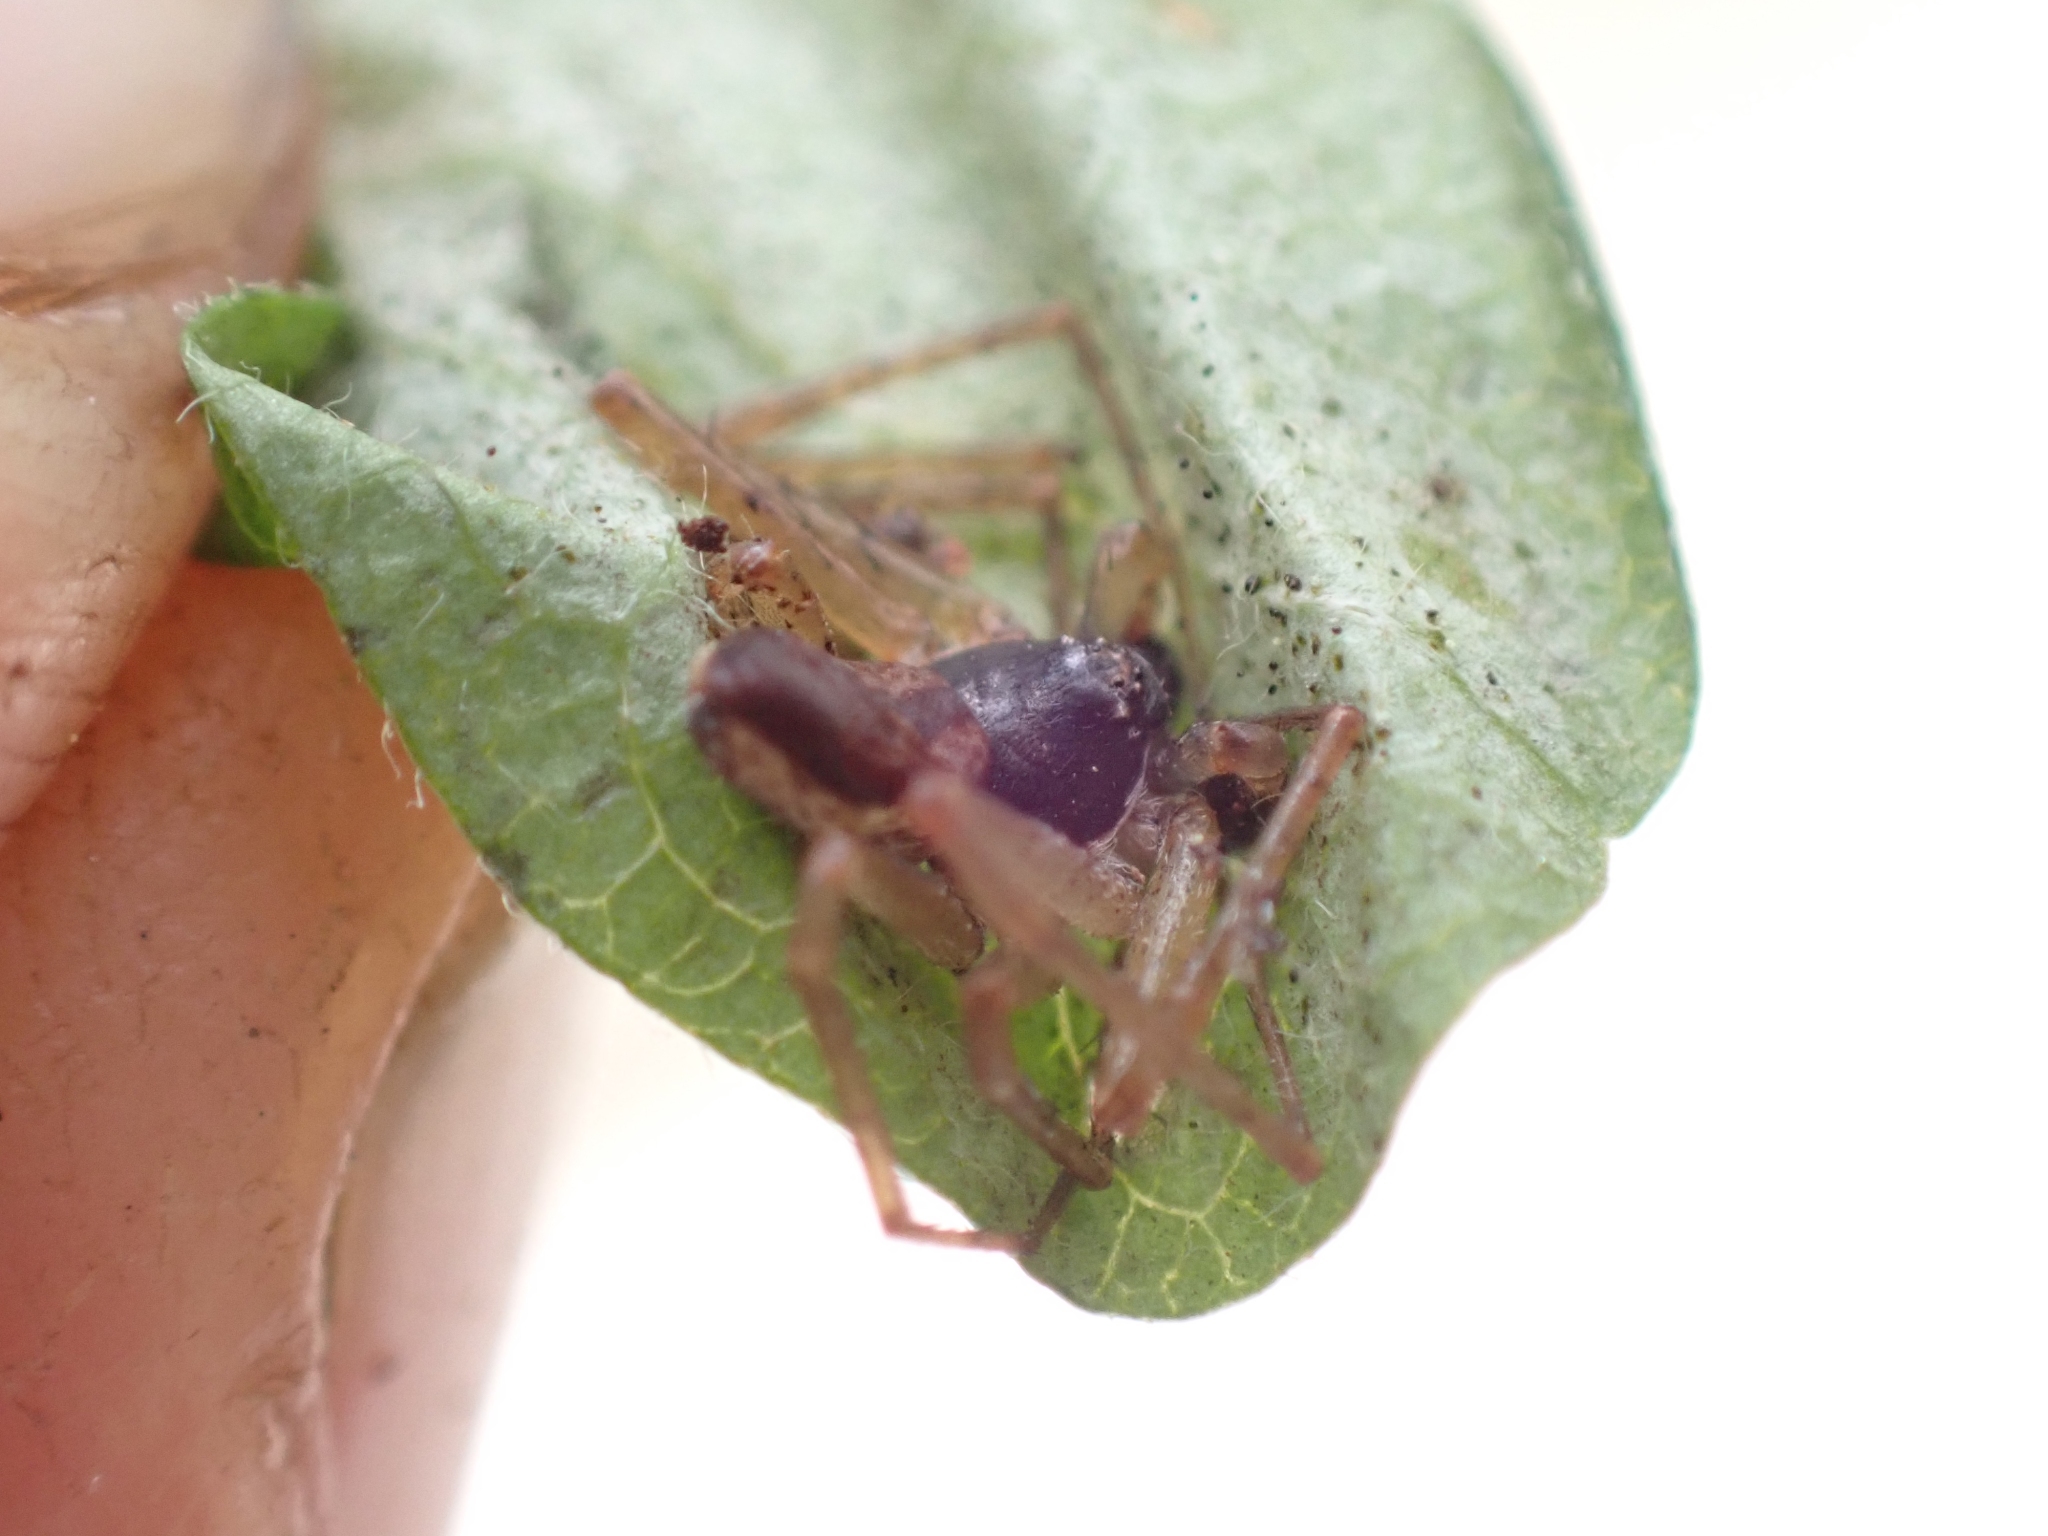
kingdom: Animalia
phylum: Arthropoda
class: Arachnida
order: Araneae
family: Philodromidae
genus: Philodromus
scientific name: Philodromus dispar
